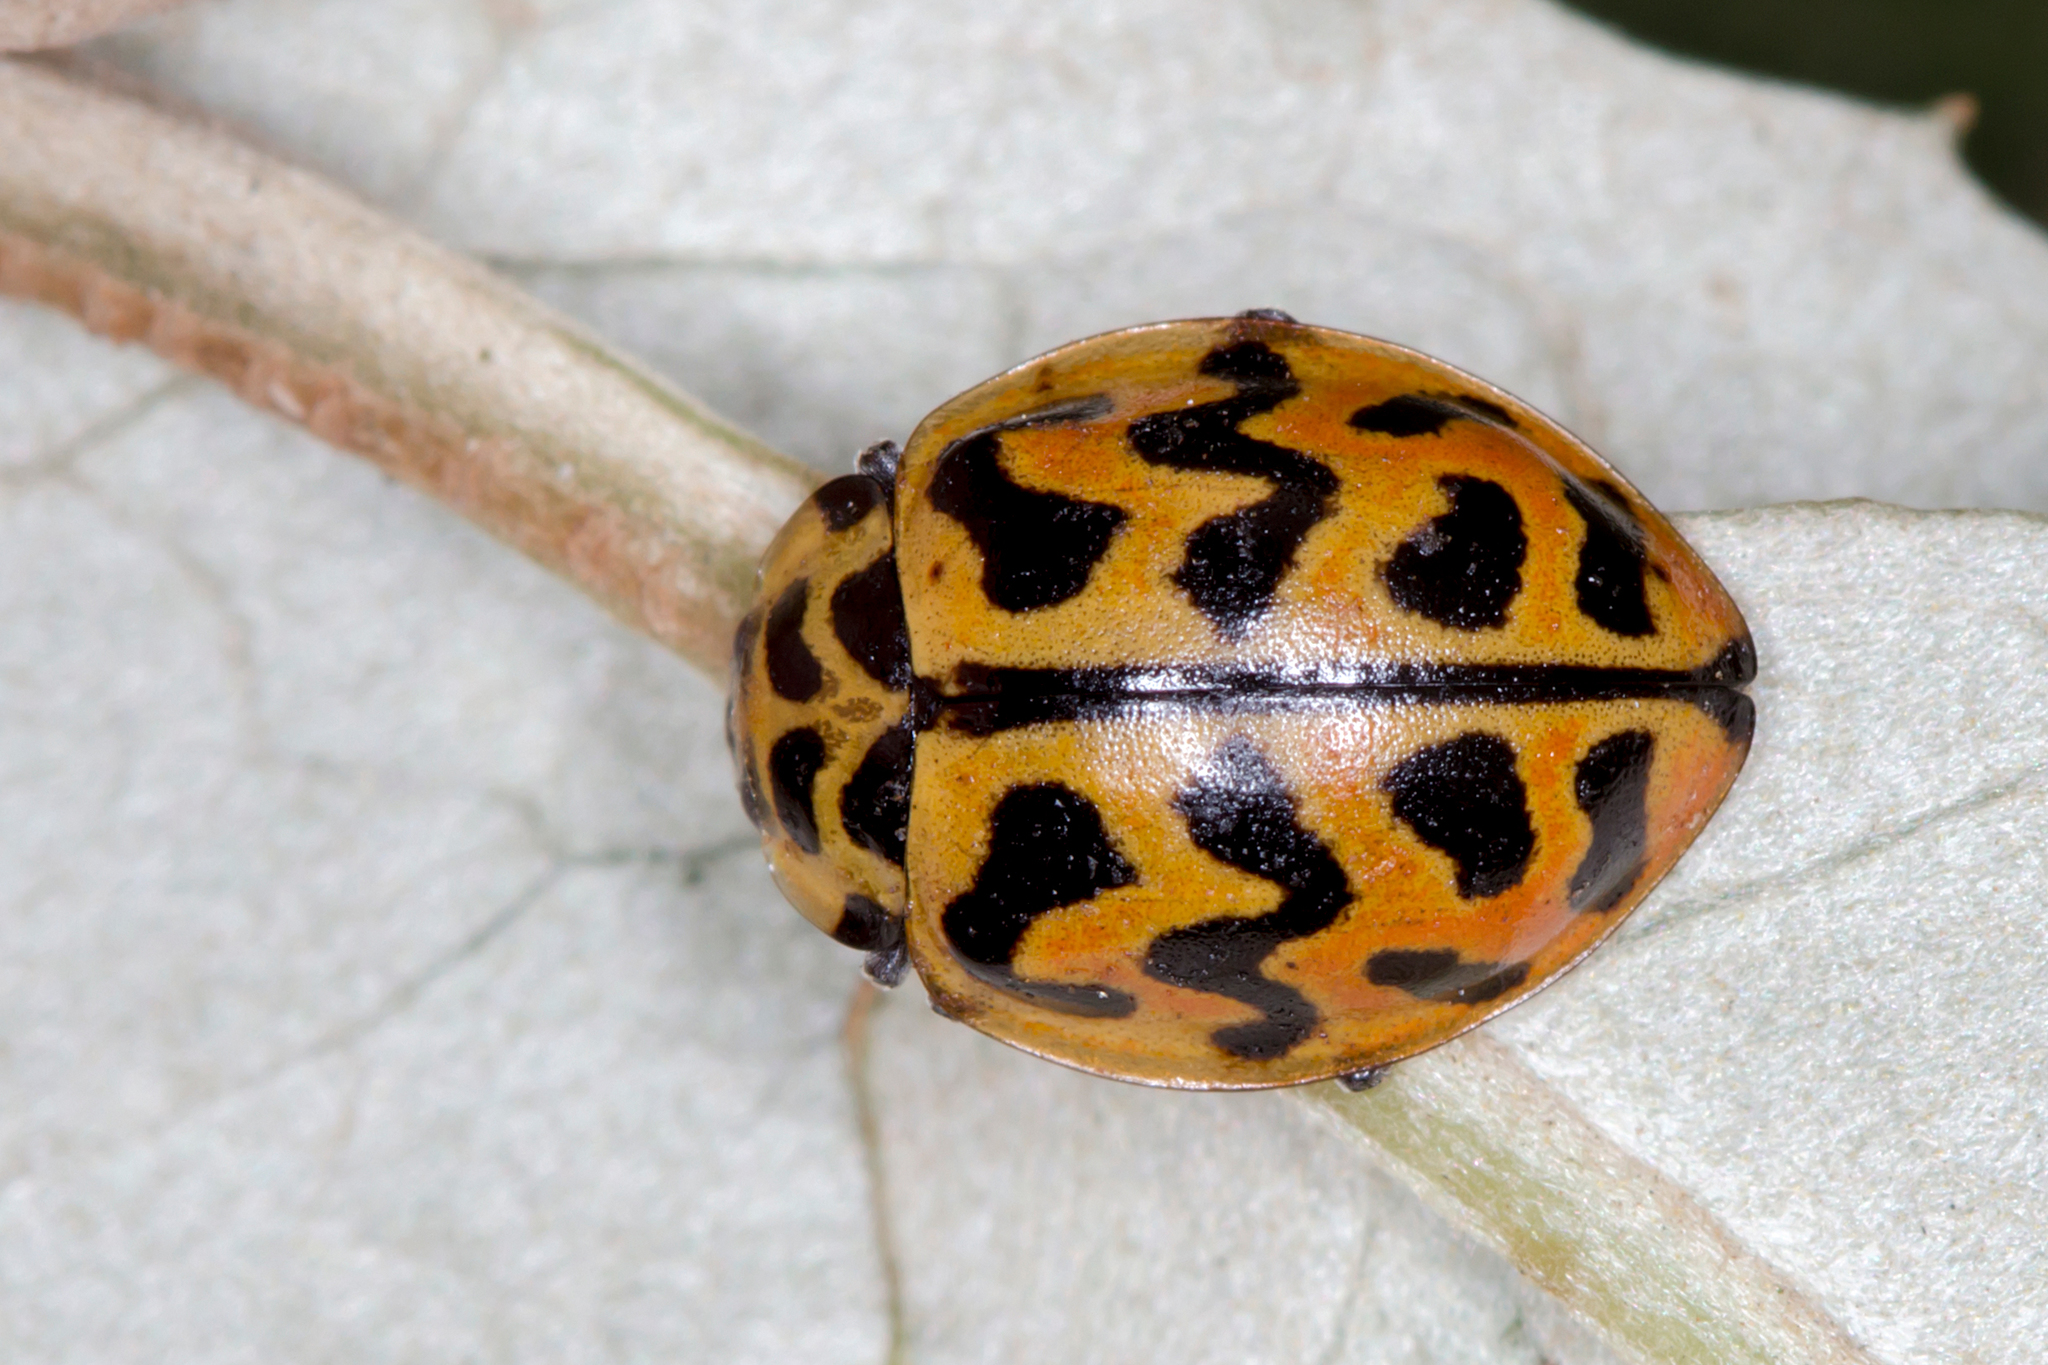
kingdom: Animalia
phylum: Arthropoda
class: Insecta
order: Coleoptera
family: Coccinellidae
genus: Cleobora
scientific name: Cleobora
